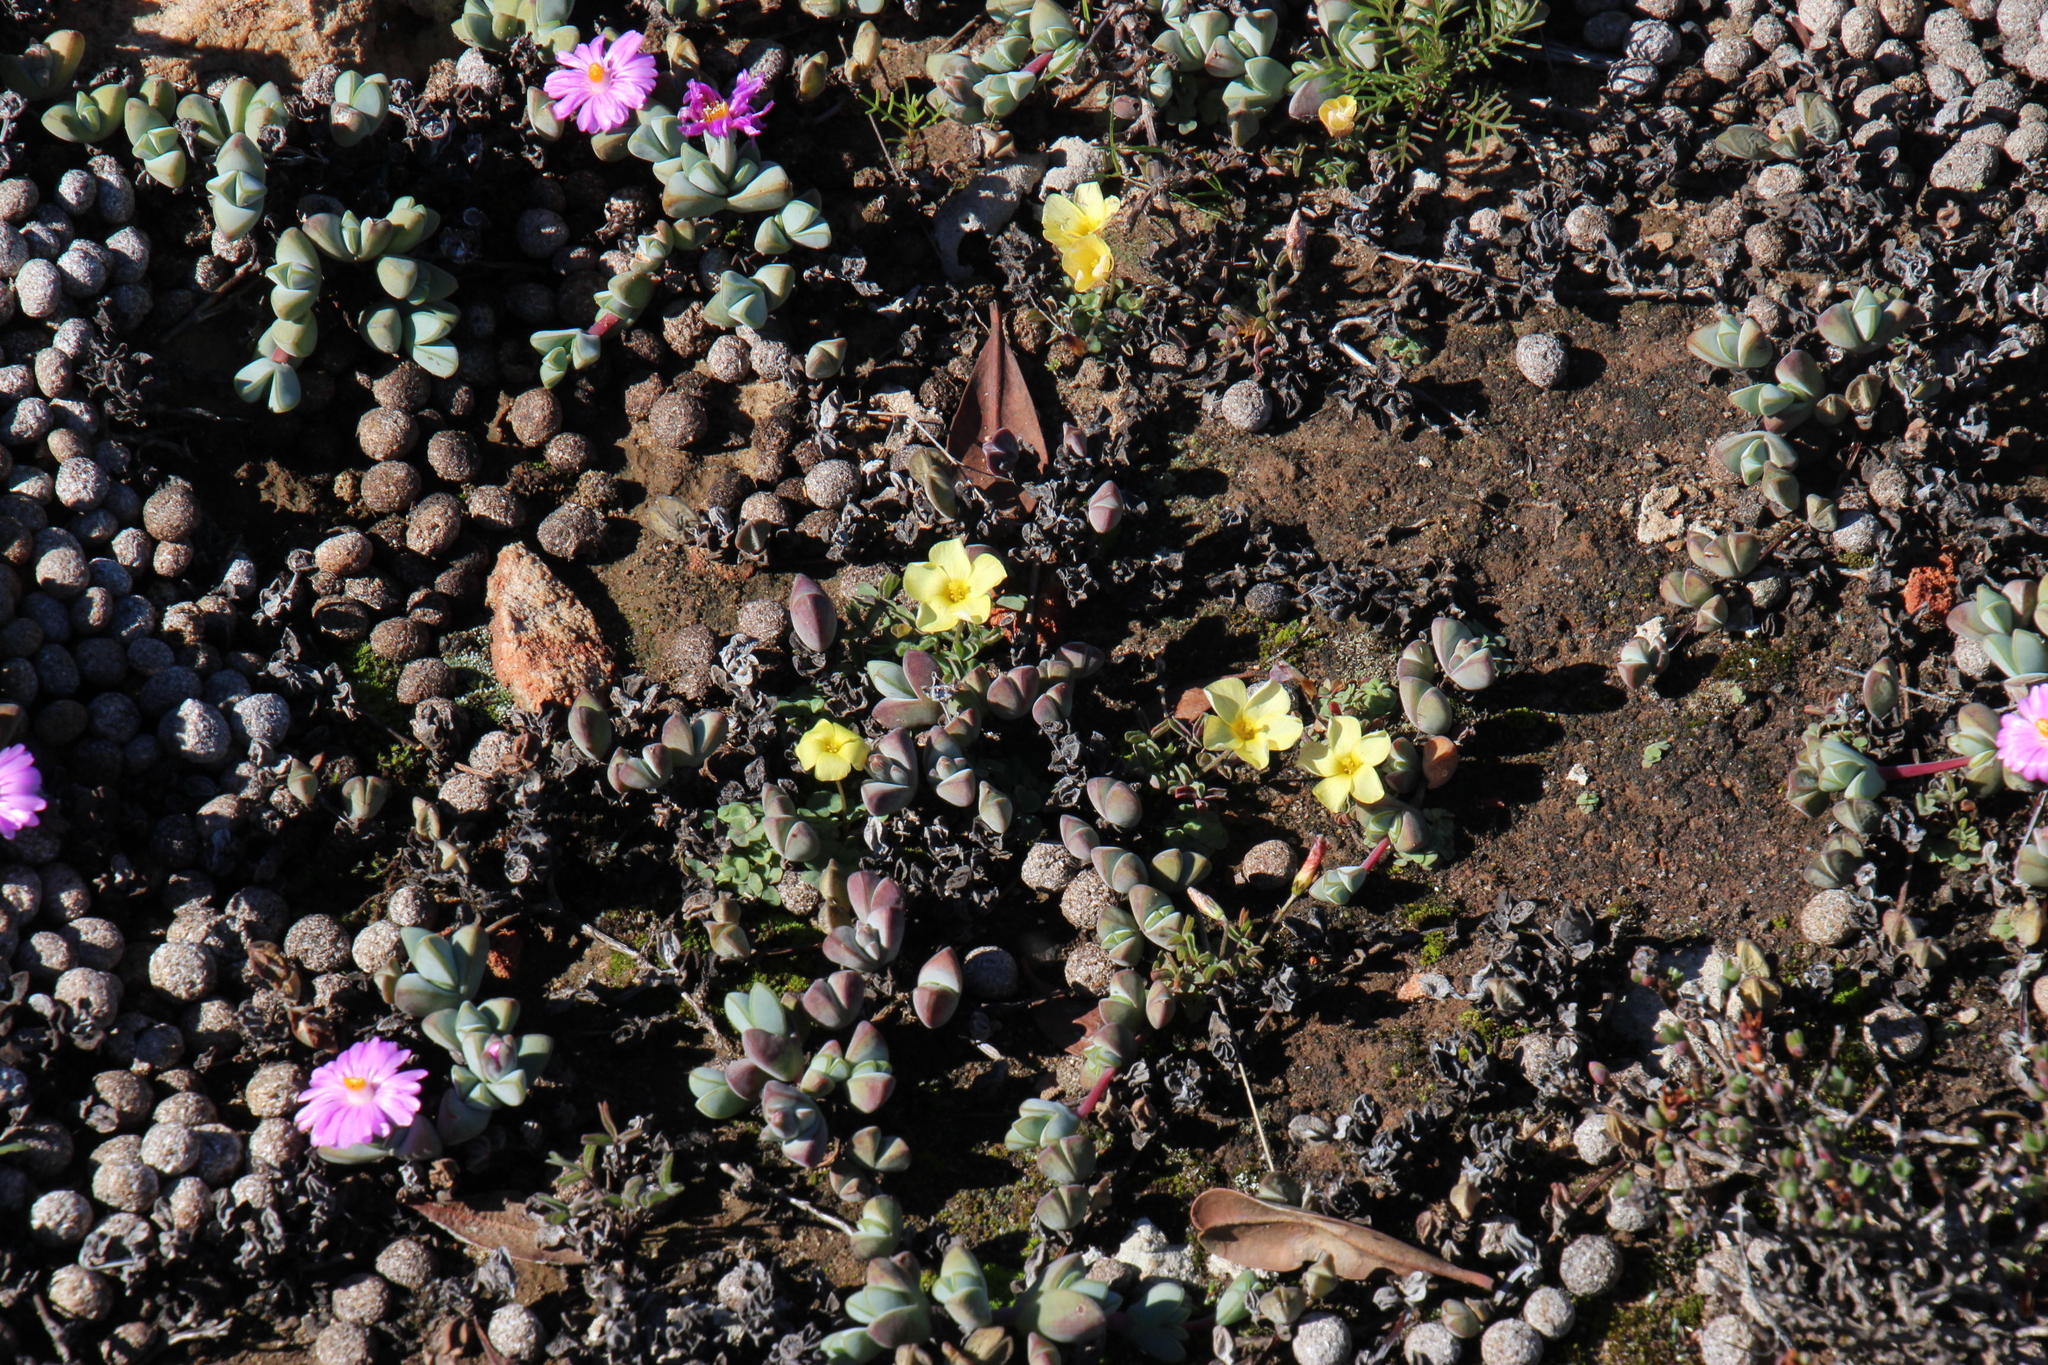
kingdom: Plantae
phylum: Tracheophyta
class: Magnoliopsida
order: Oxalidales
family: Oxalidaceae
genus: Oxalis
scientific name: Oxalis obtusa
